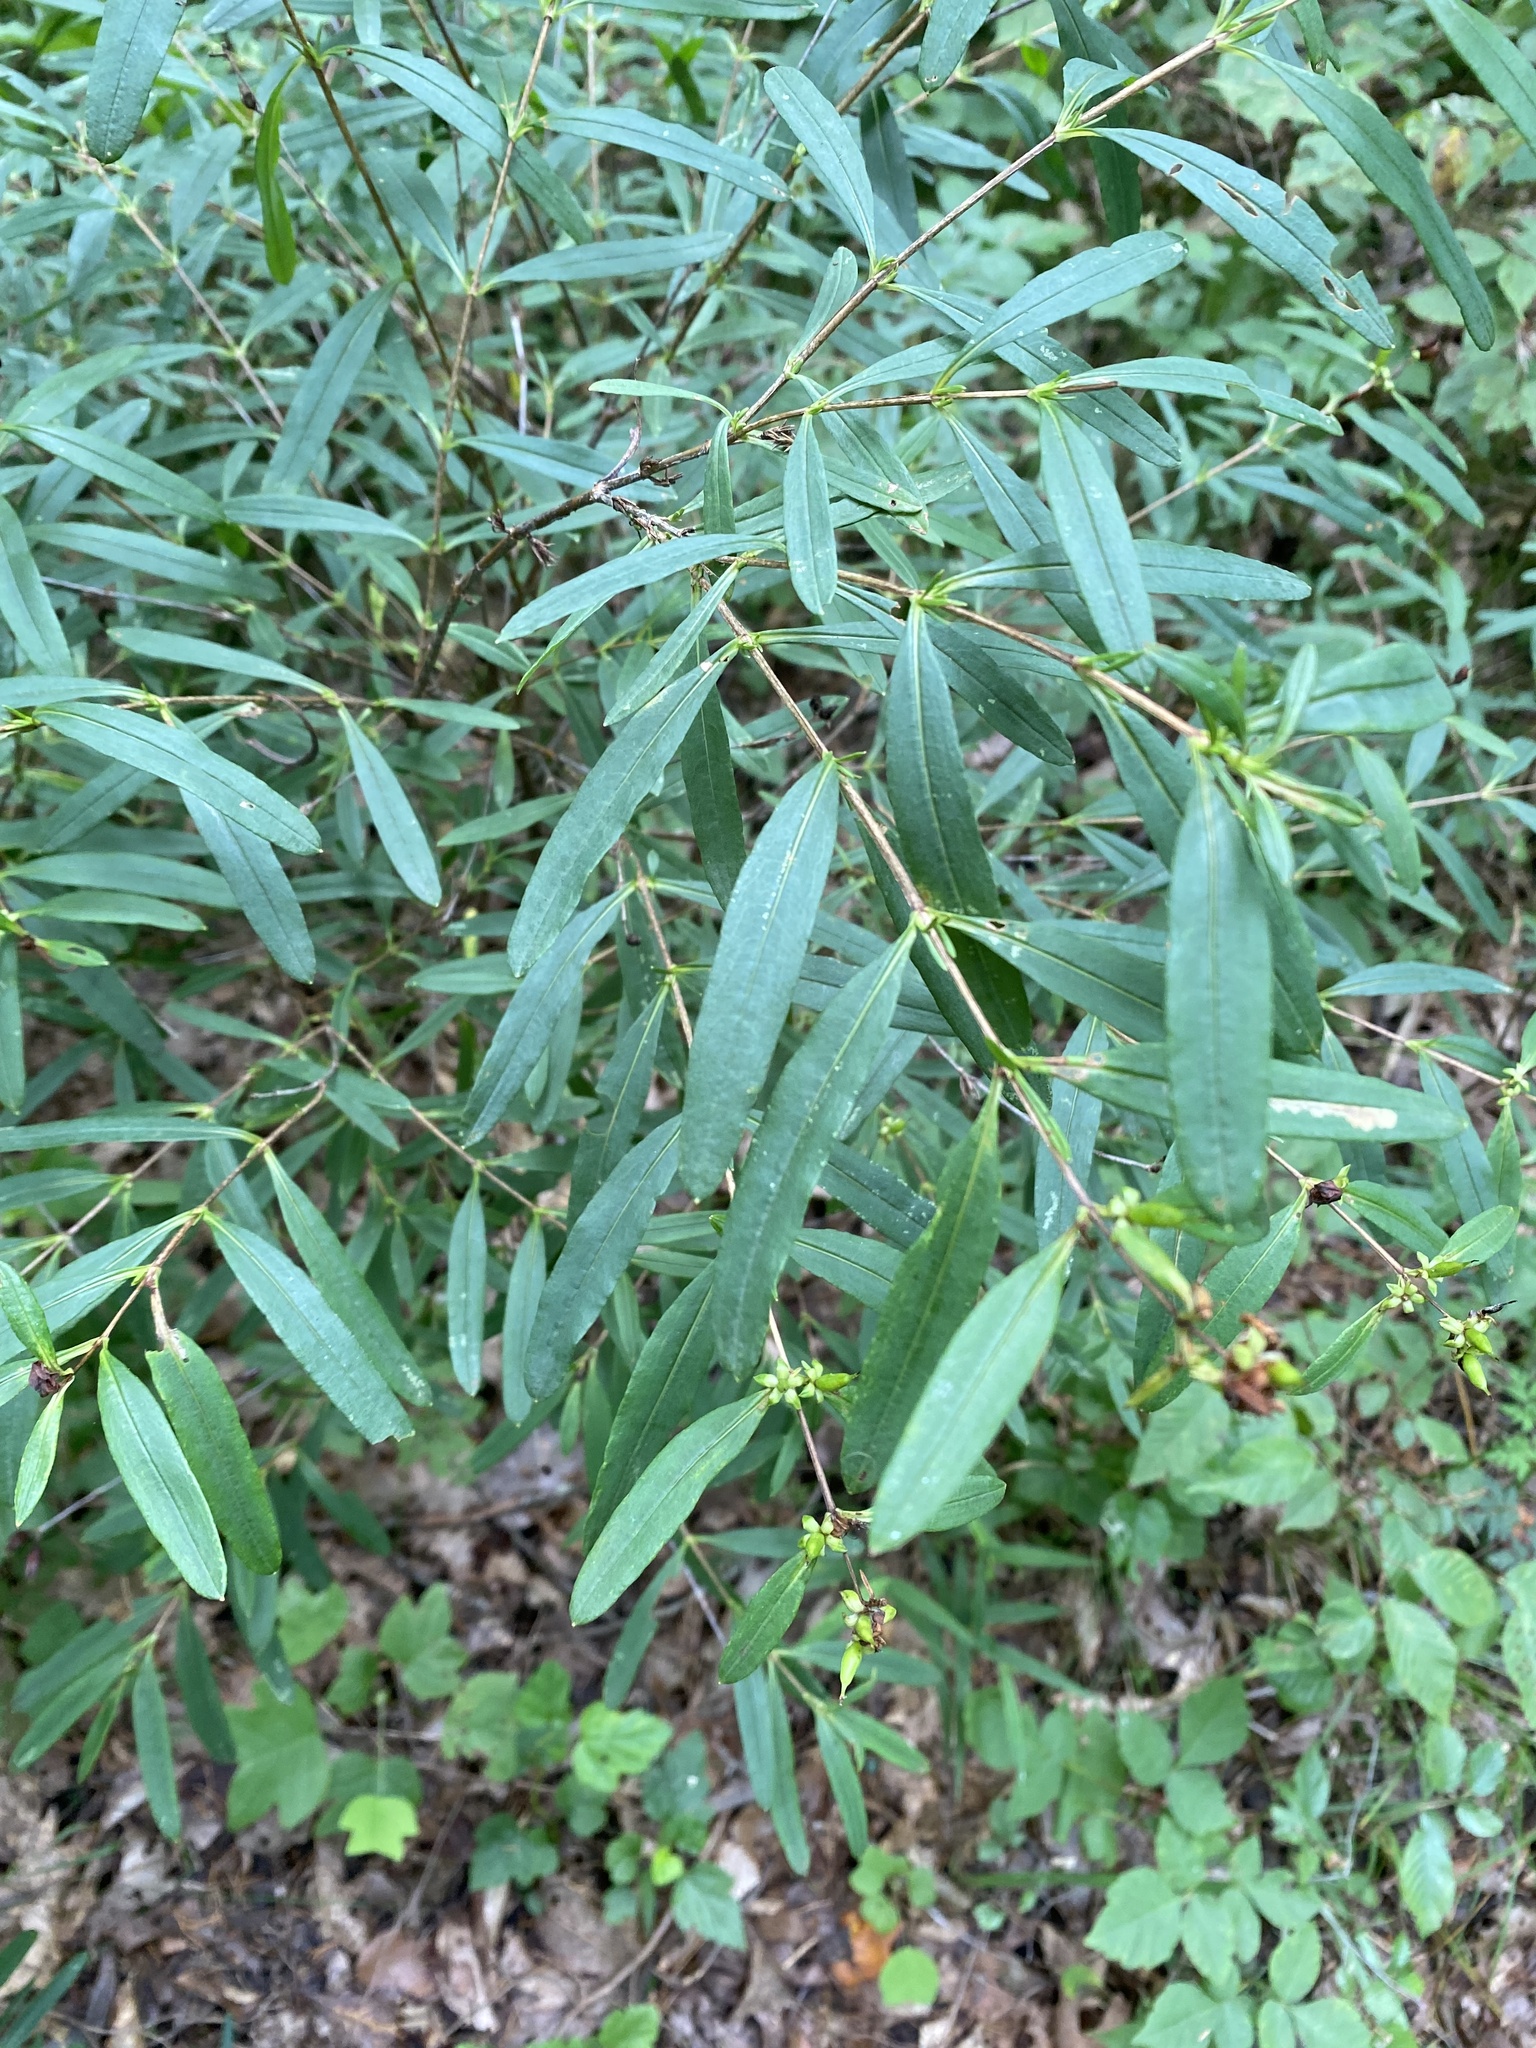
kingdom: Plantae
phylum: Tracheophyta
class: Magnoliopsida
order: Malpighiales
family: Hypericaceae
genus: Hypericum
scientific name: Hypericum prolificum
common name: Shrubby st. john's-wort
